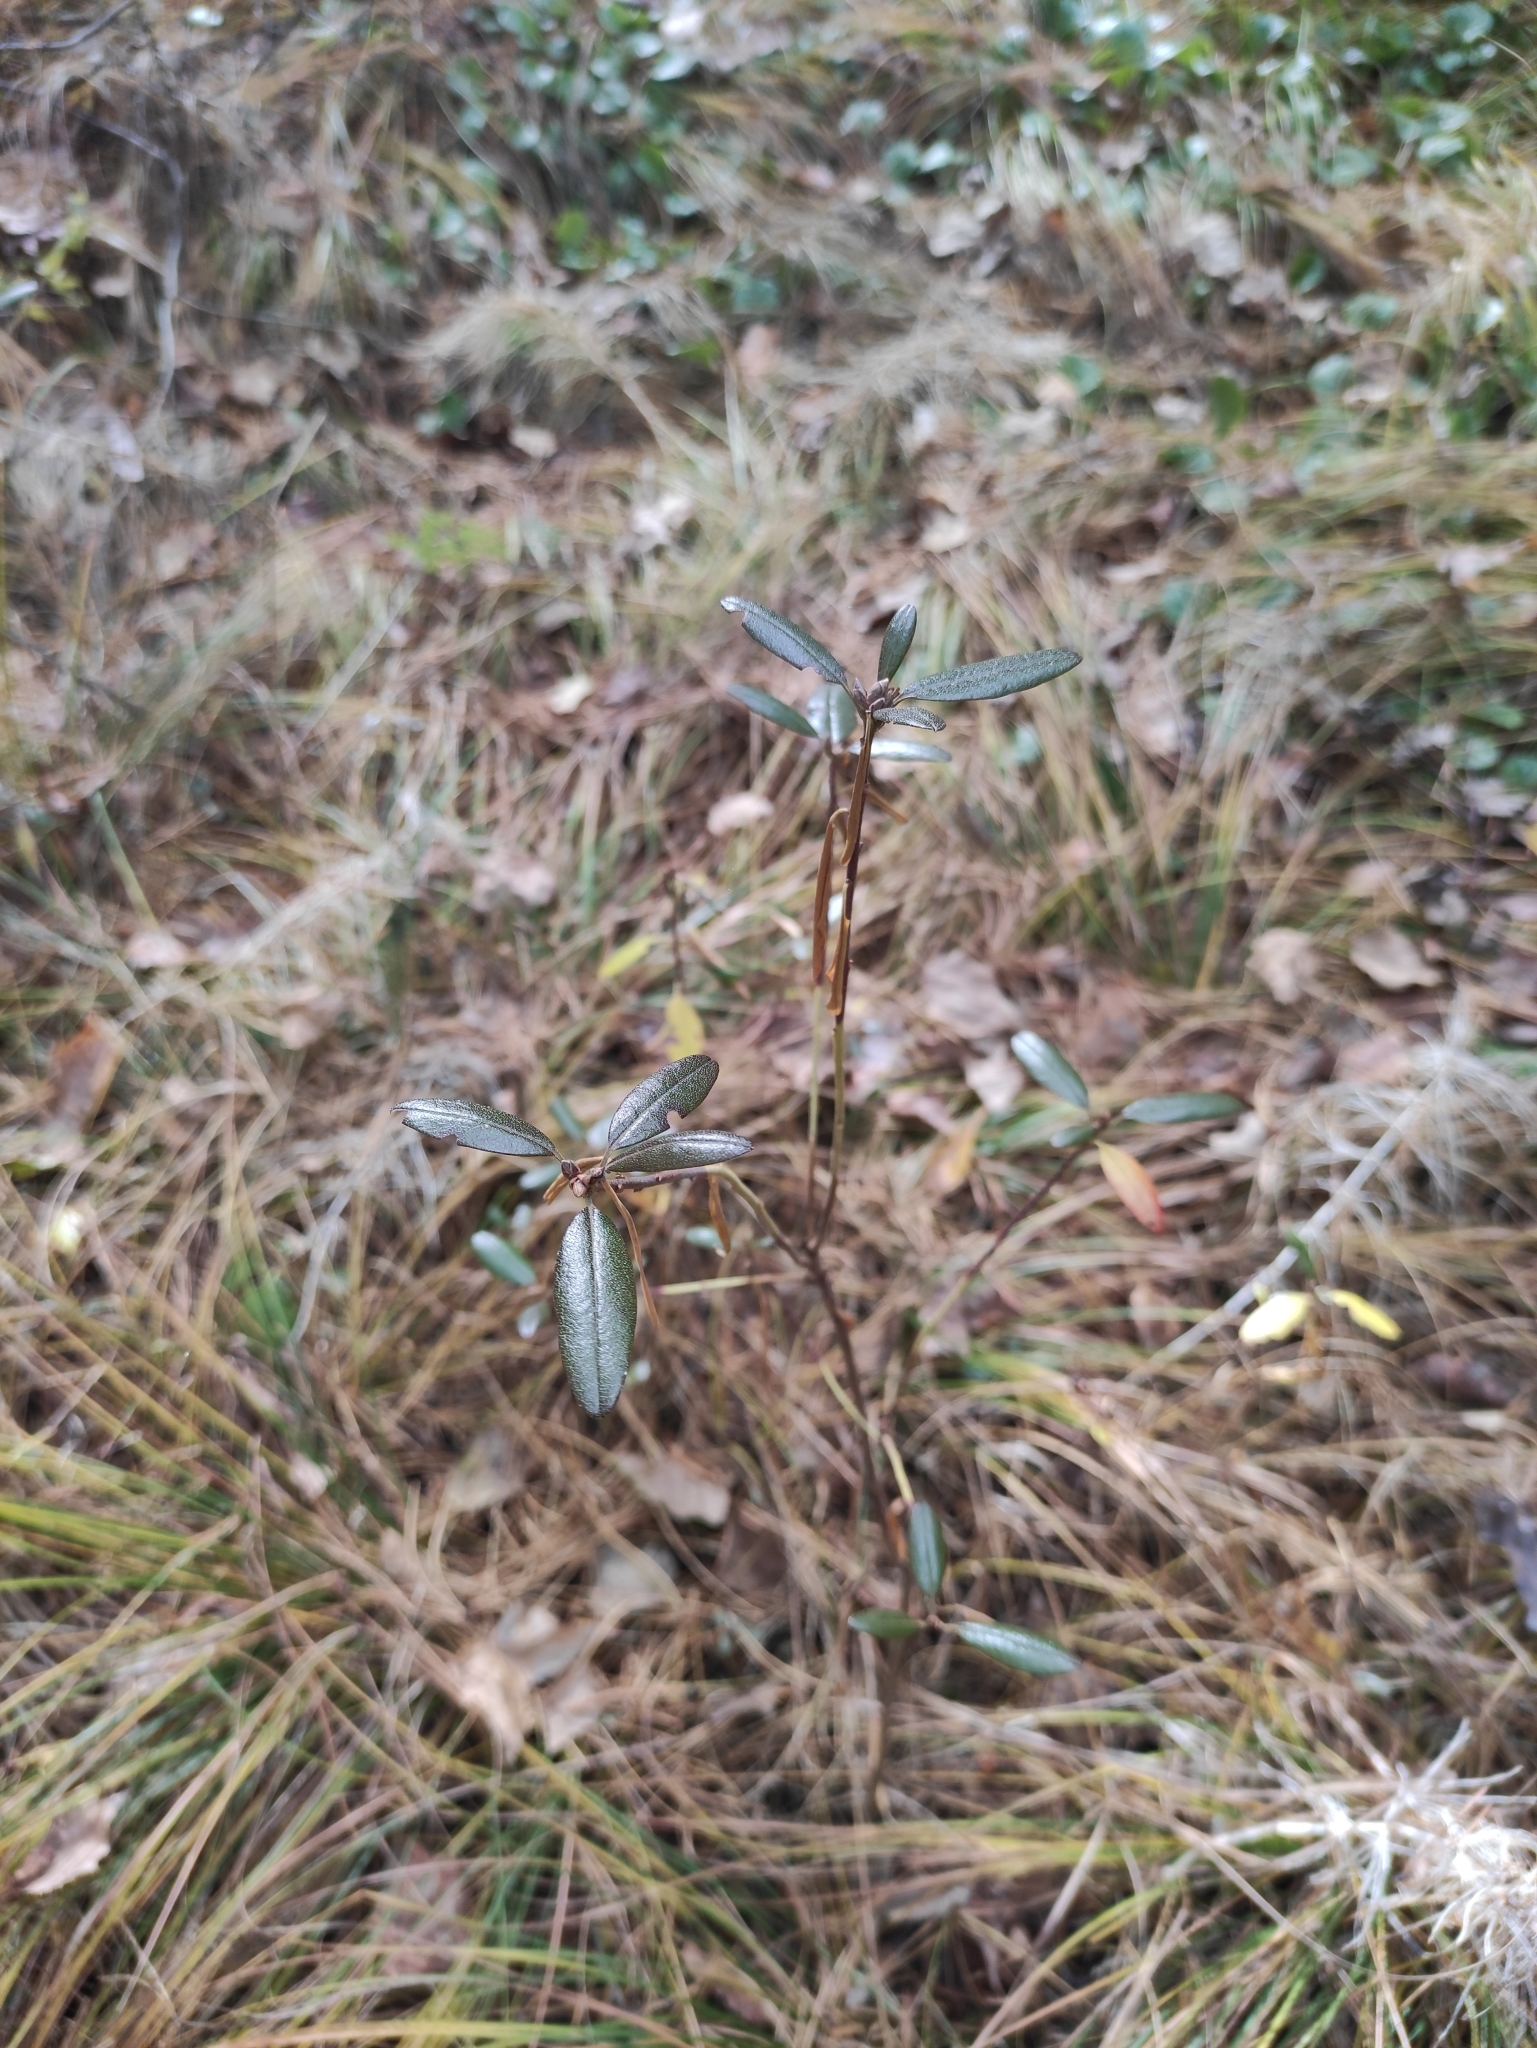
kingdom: Plantae
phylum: Tracheophyta
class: Magnoliopsida
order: Ericales
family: Ericaceae
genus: Rhododendron
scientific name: Rhododendron dauricum
